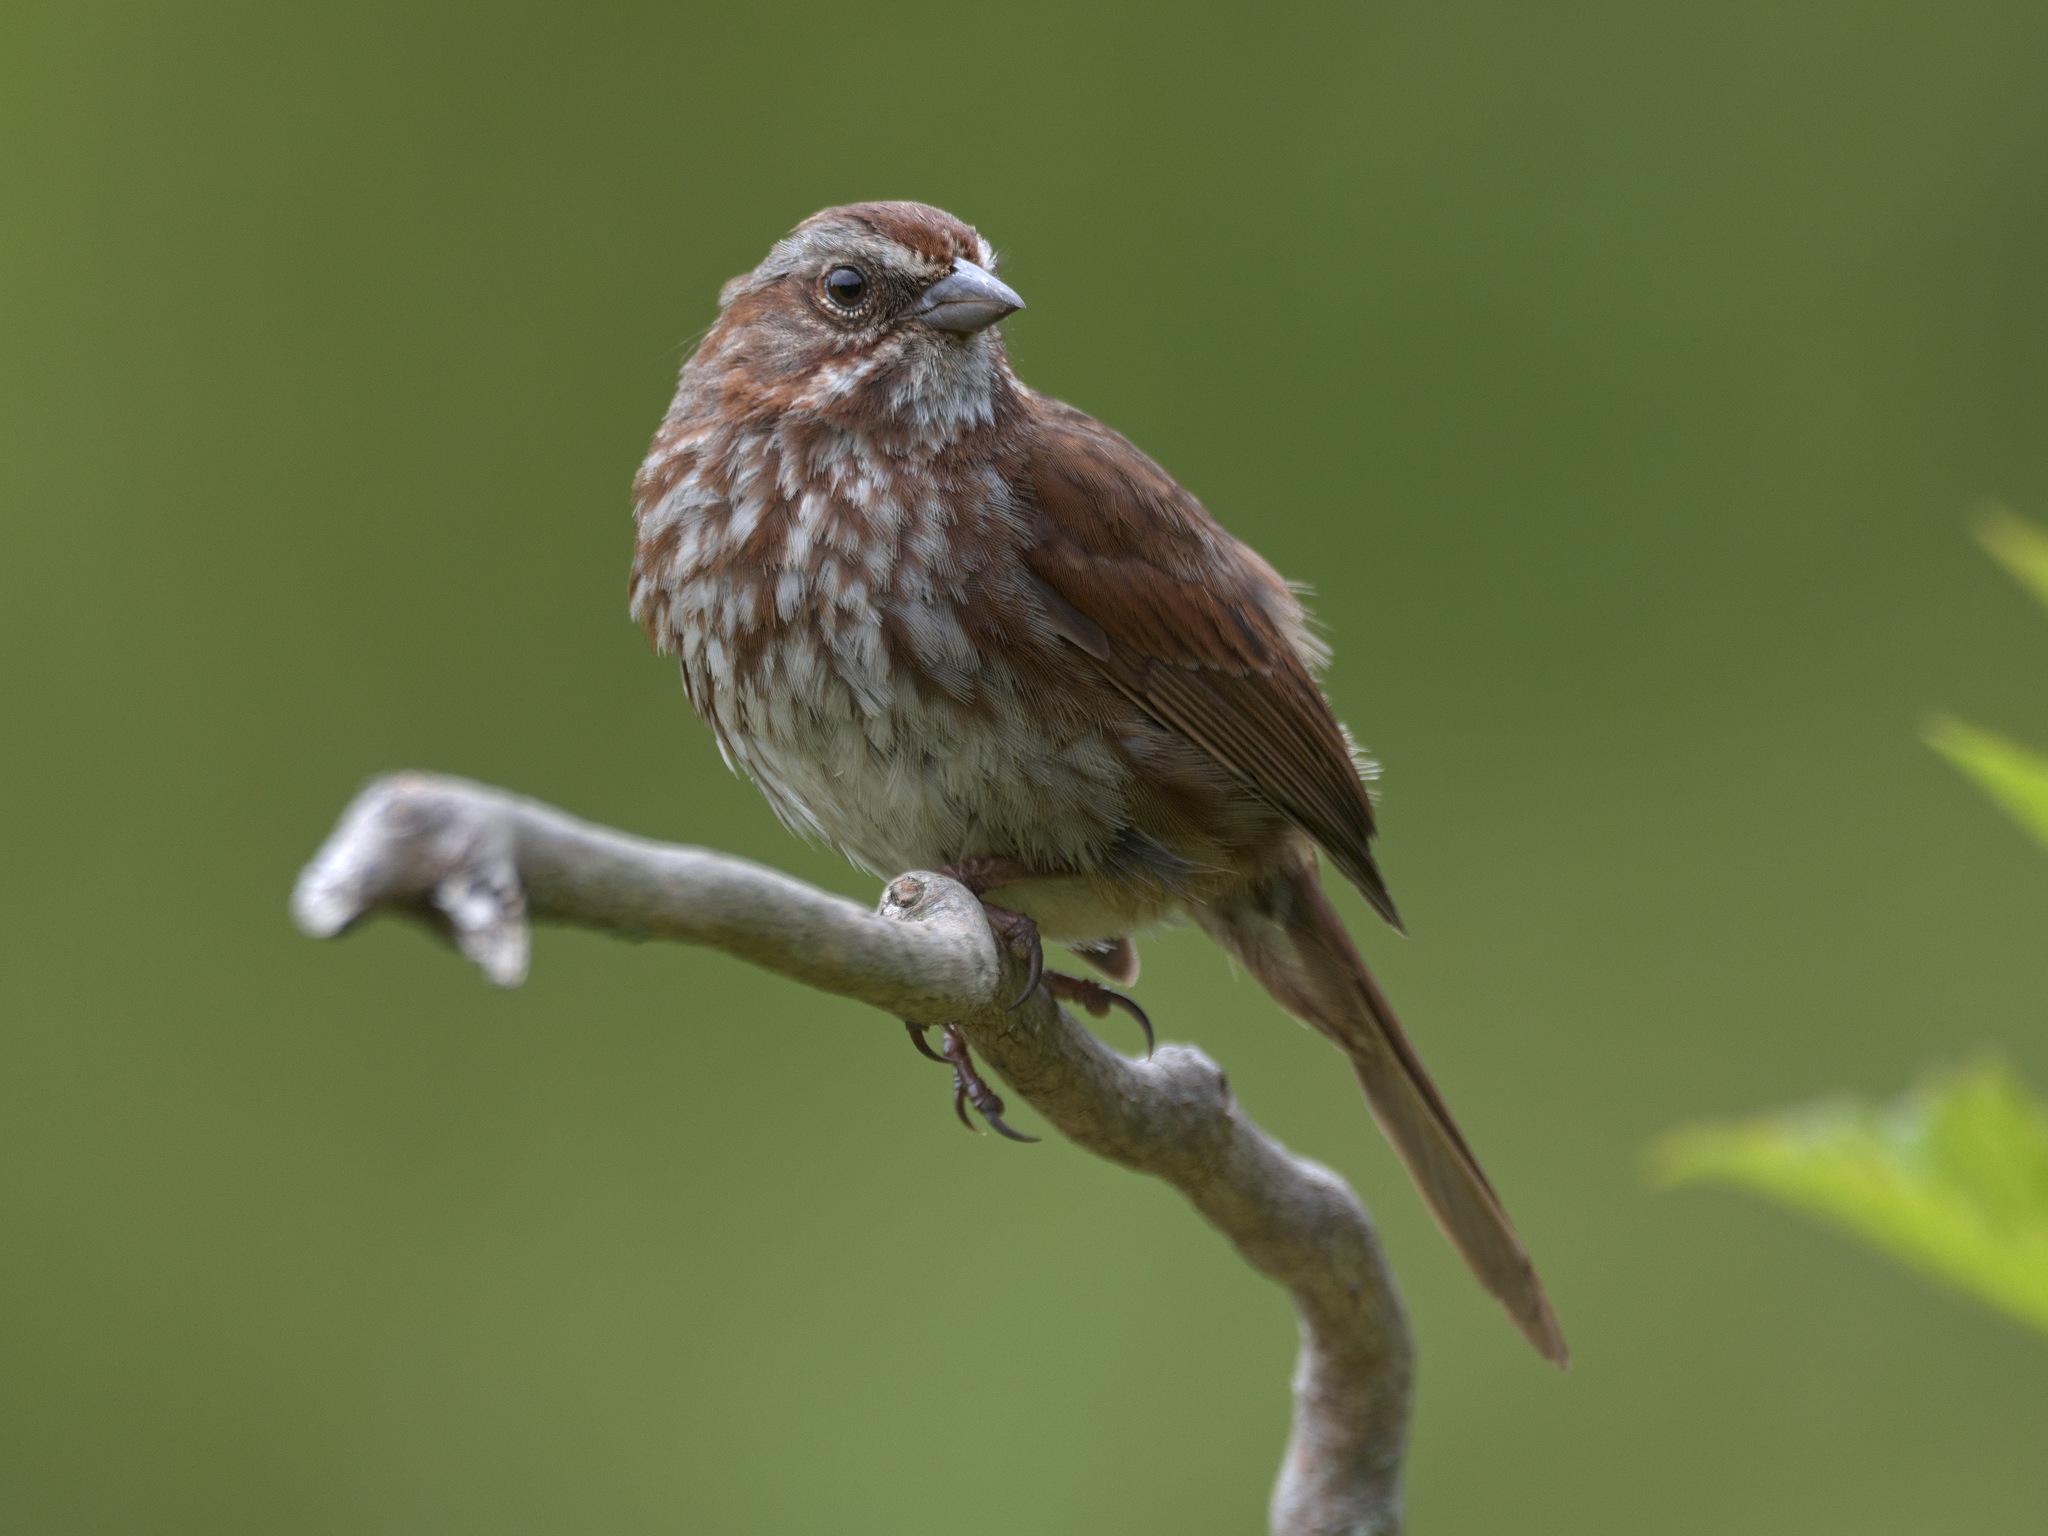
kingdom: Animalia
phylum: Chordata
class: Aves
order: Passeriformes
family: Passerellidae
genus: Melospiza
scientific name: Melospiza melodia
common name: Song sparrow
